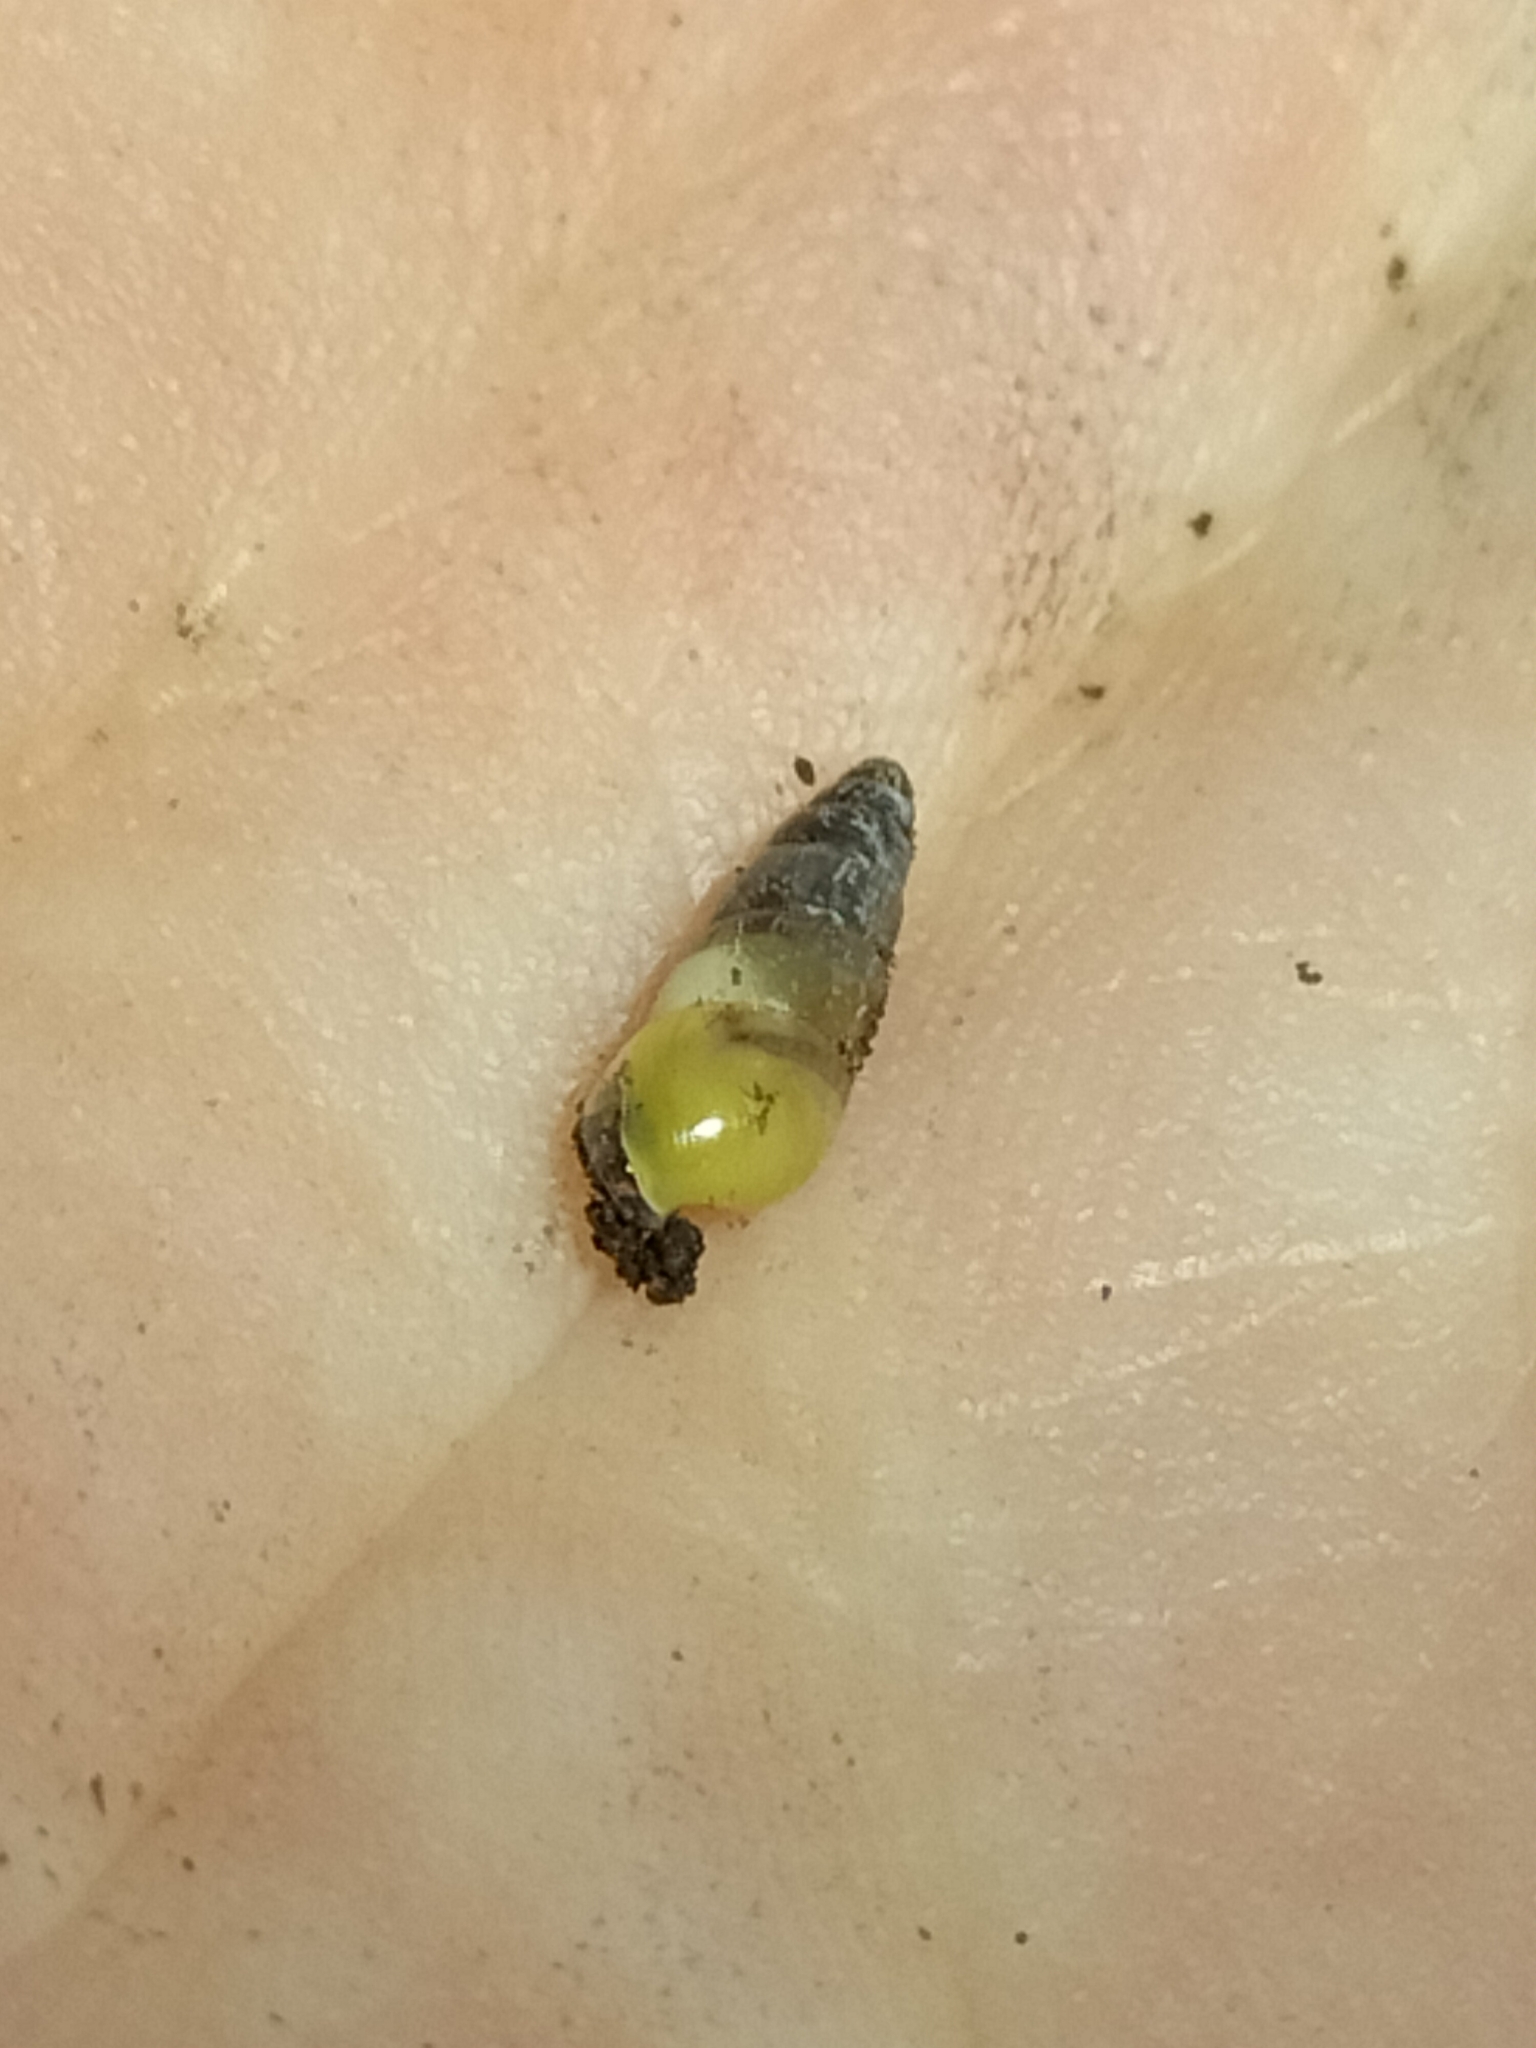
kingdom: Animalia
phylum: Mollusca
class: Gastropoda
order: Stylommatophora
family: Achatinidae
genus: Allopeas
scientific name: Allopeas clavulinum
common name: Spike awlsnail
